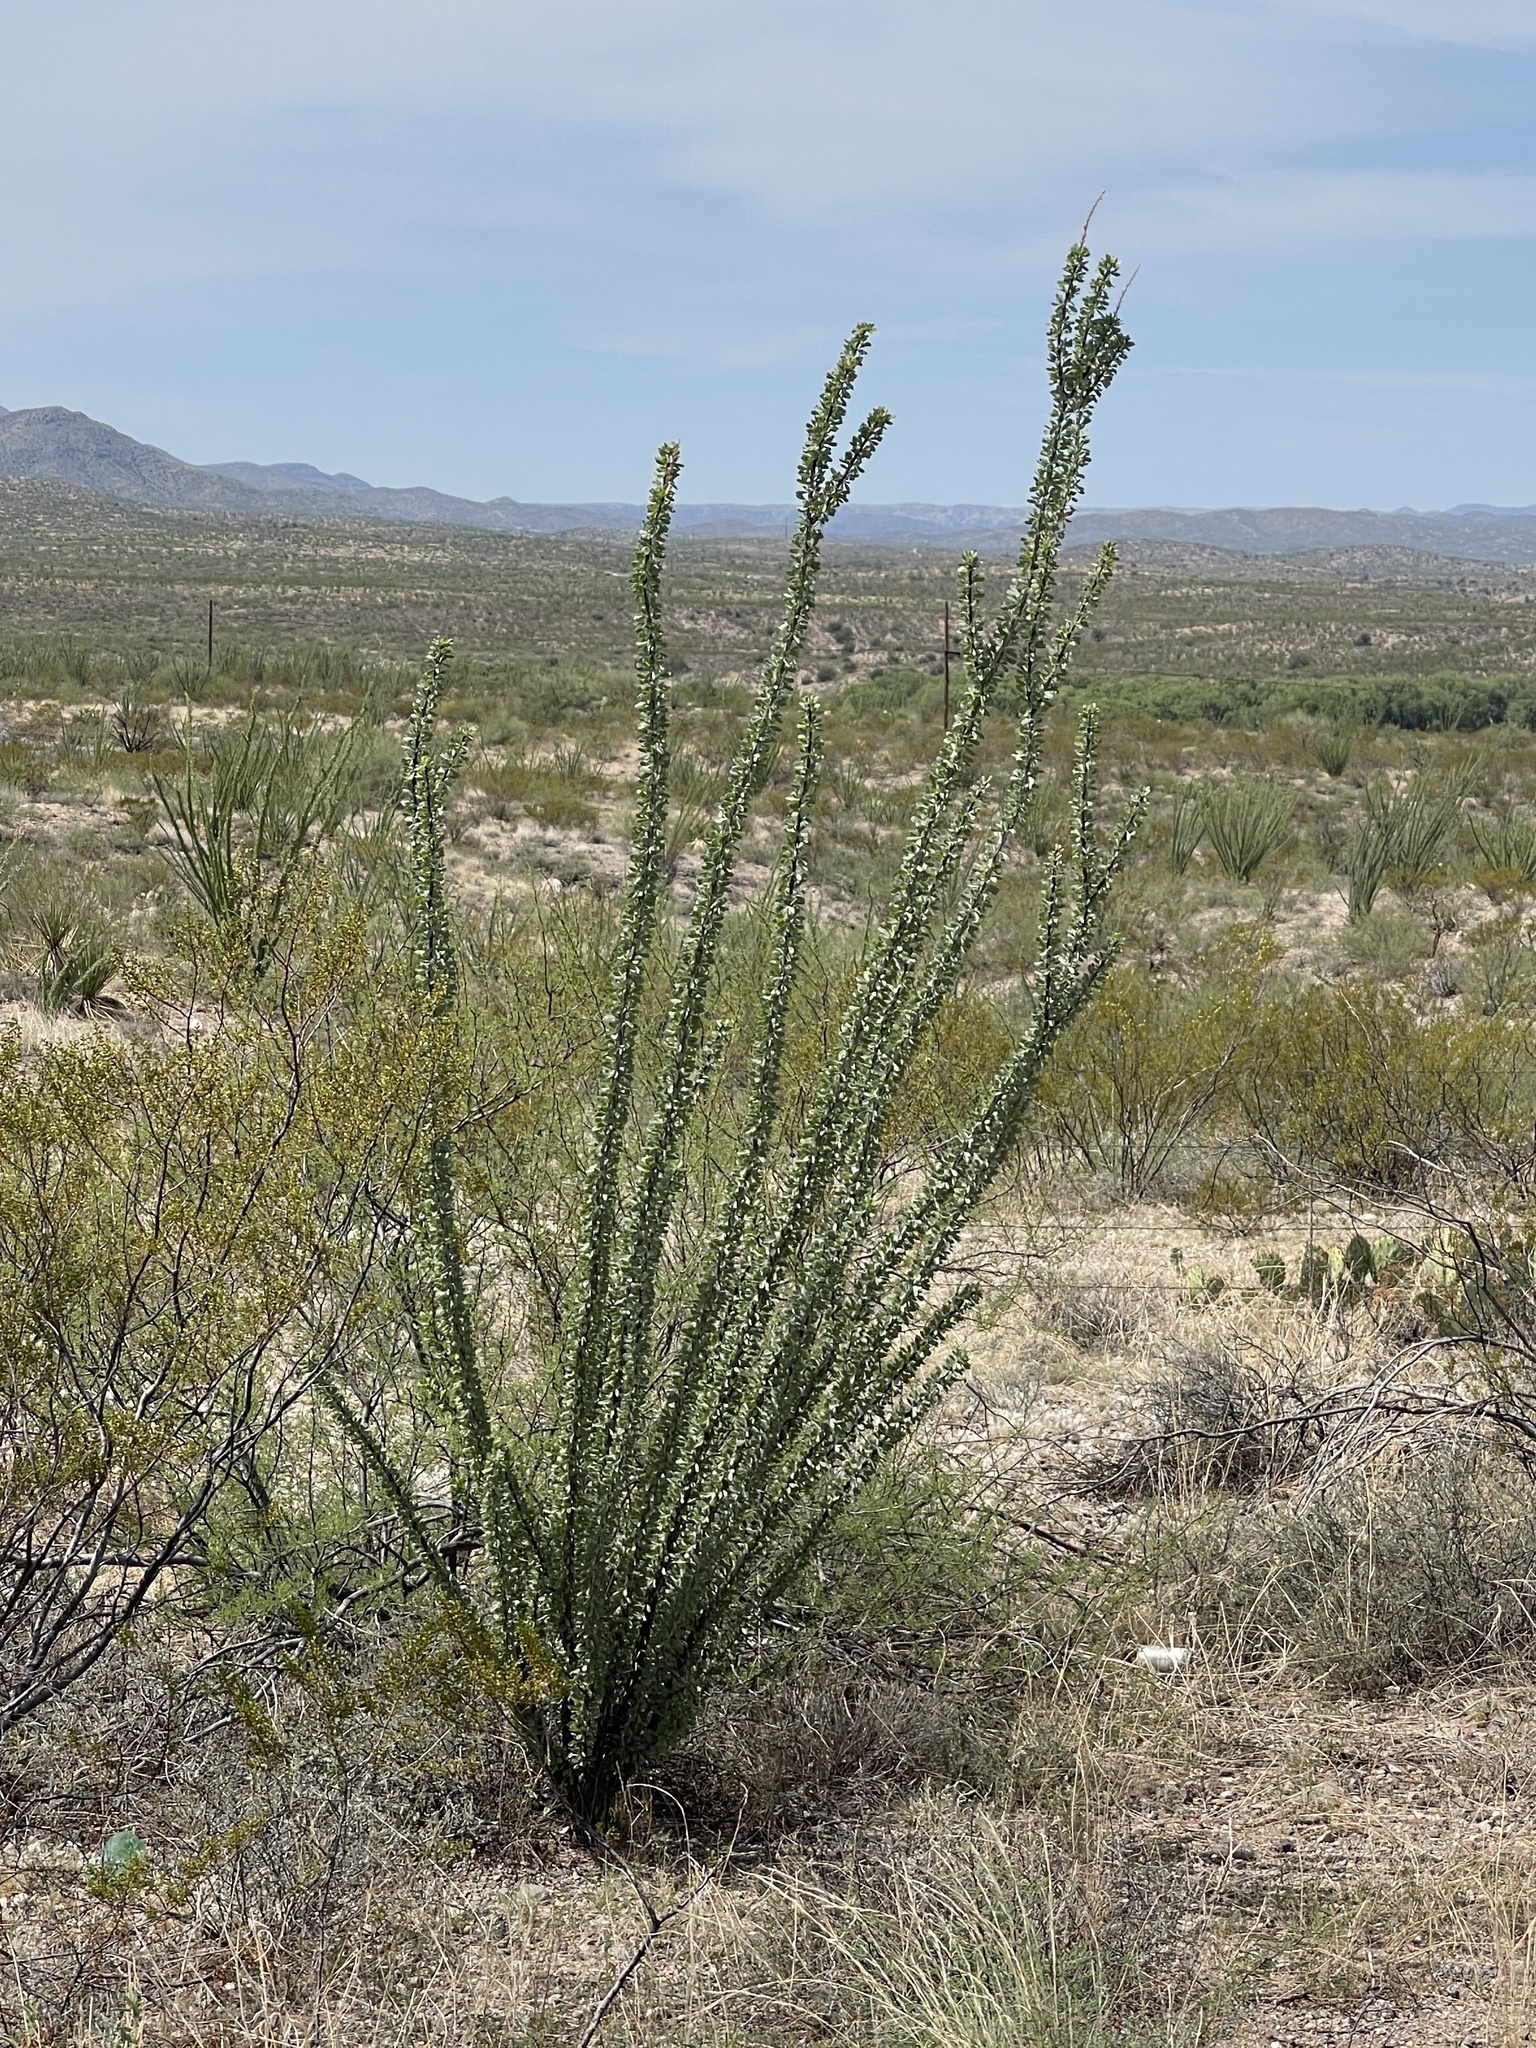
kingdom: Plantae
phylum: Tracheophyta
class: Magnoliopsida
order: Ericales
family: Fouquieriaceae
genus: Fouquieria
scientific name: Fouquieria splendens
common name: Vine-cactus
